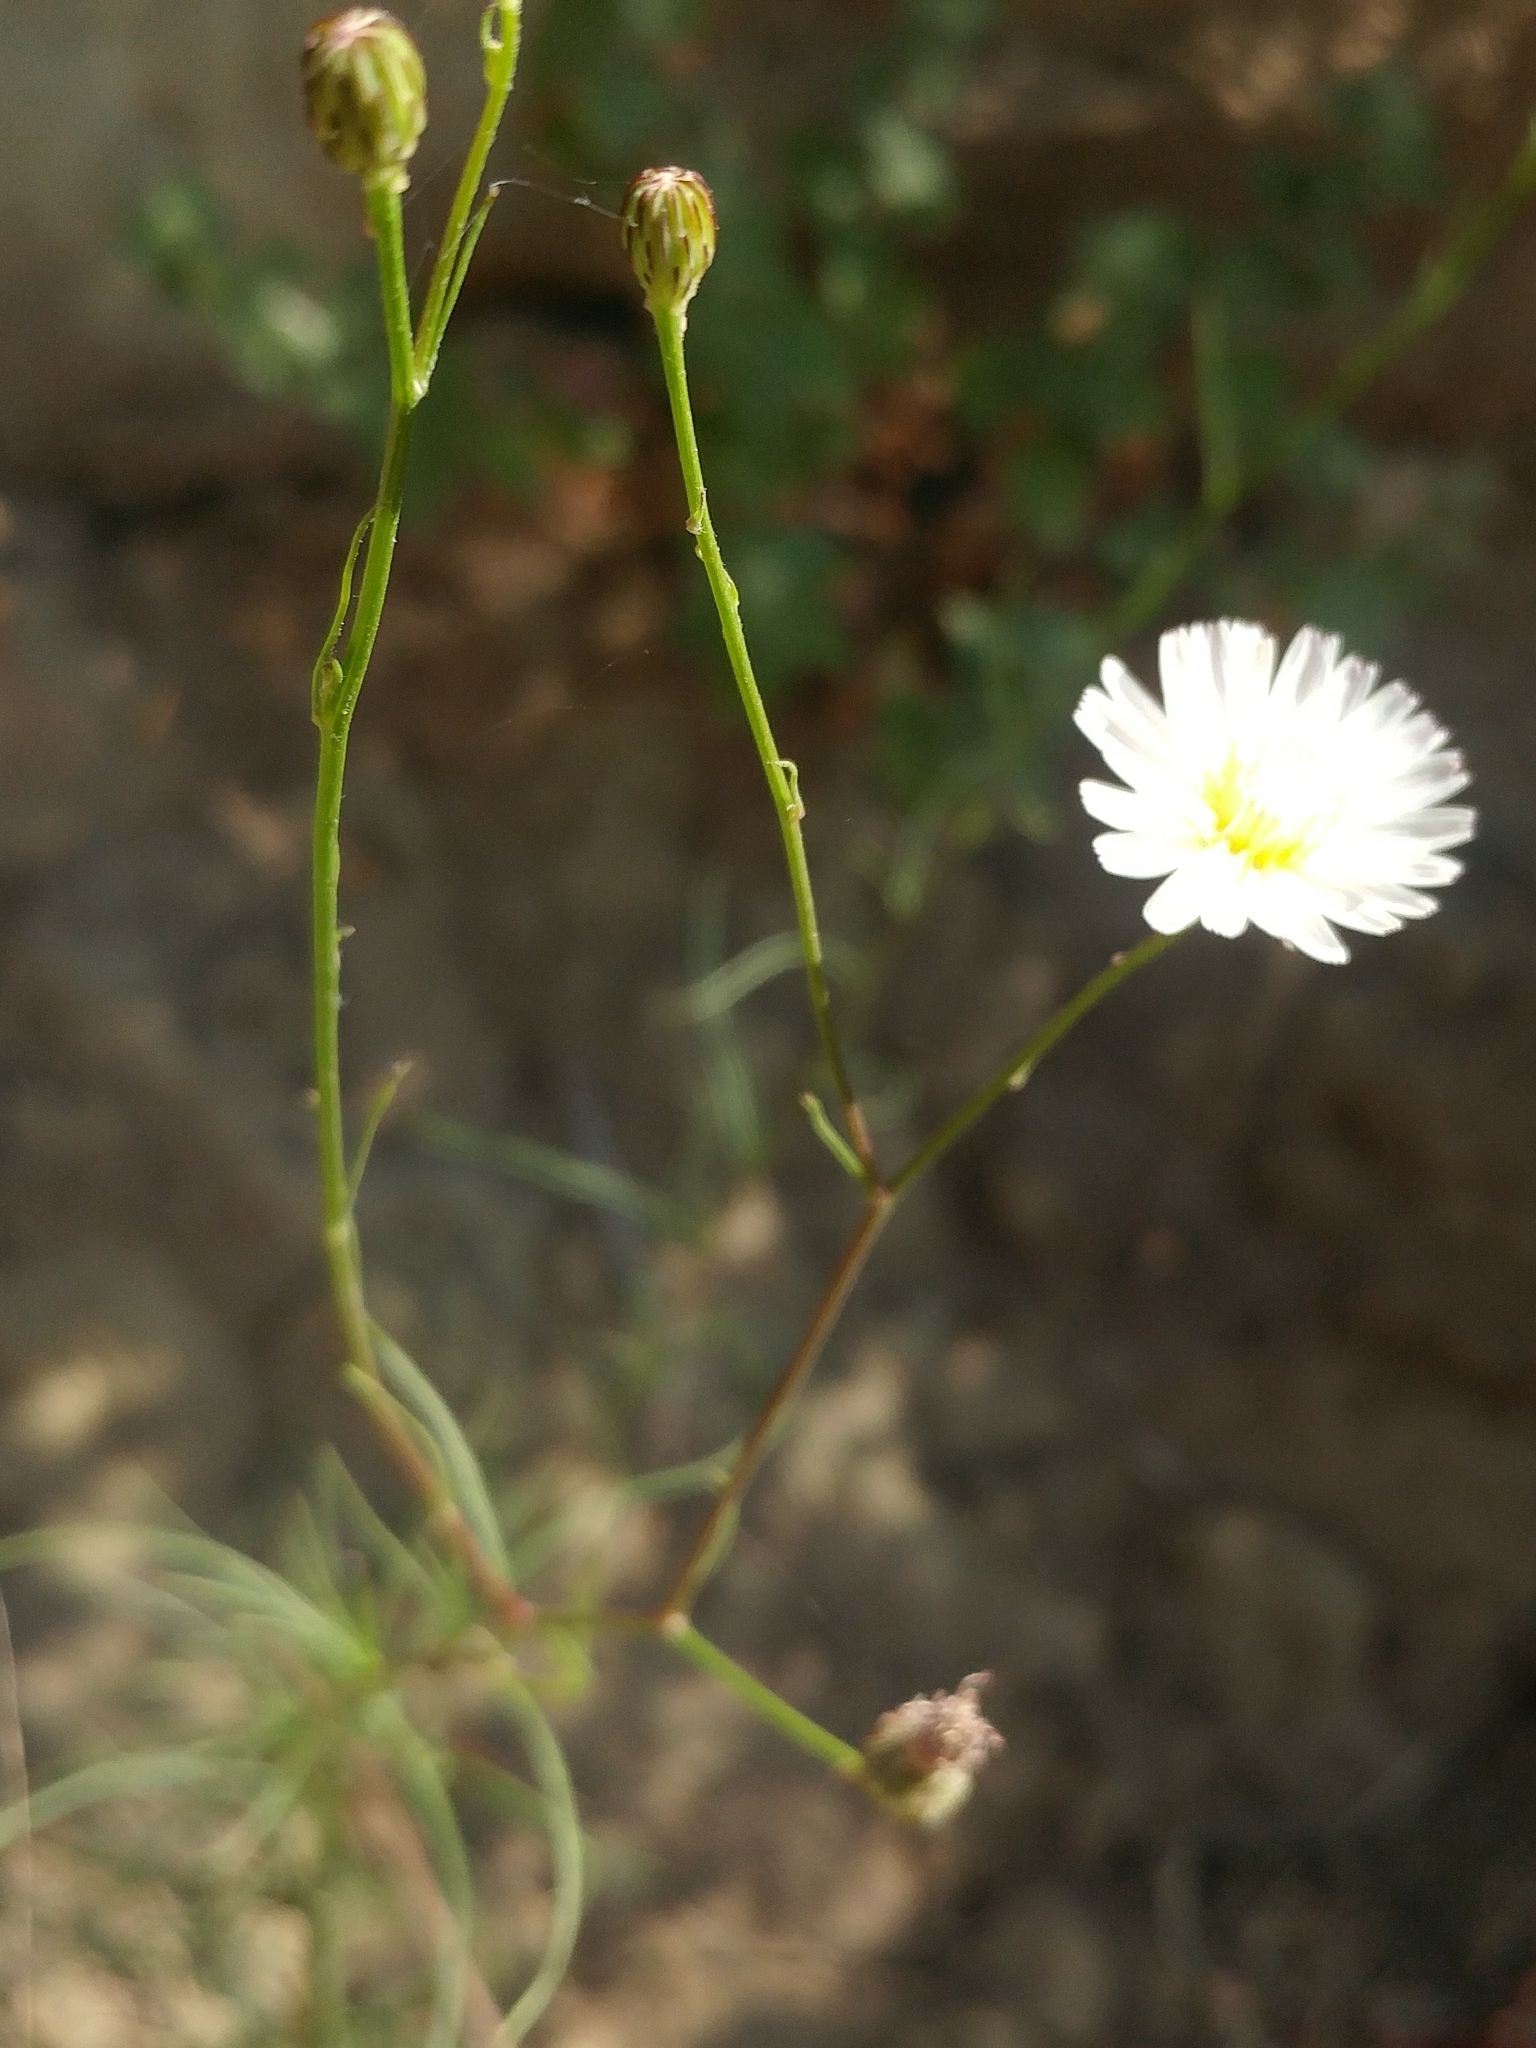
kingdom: Plantae
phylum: Tracheophyta
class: Magnoliopsida
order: Asterales
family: Asteraceae
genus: Malacothrix
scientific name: Malacothrix saxatilis
